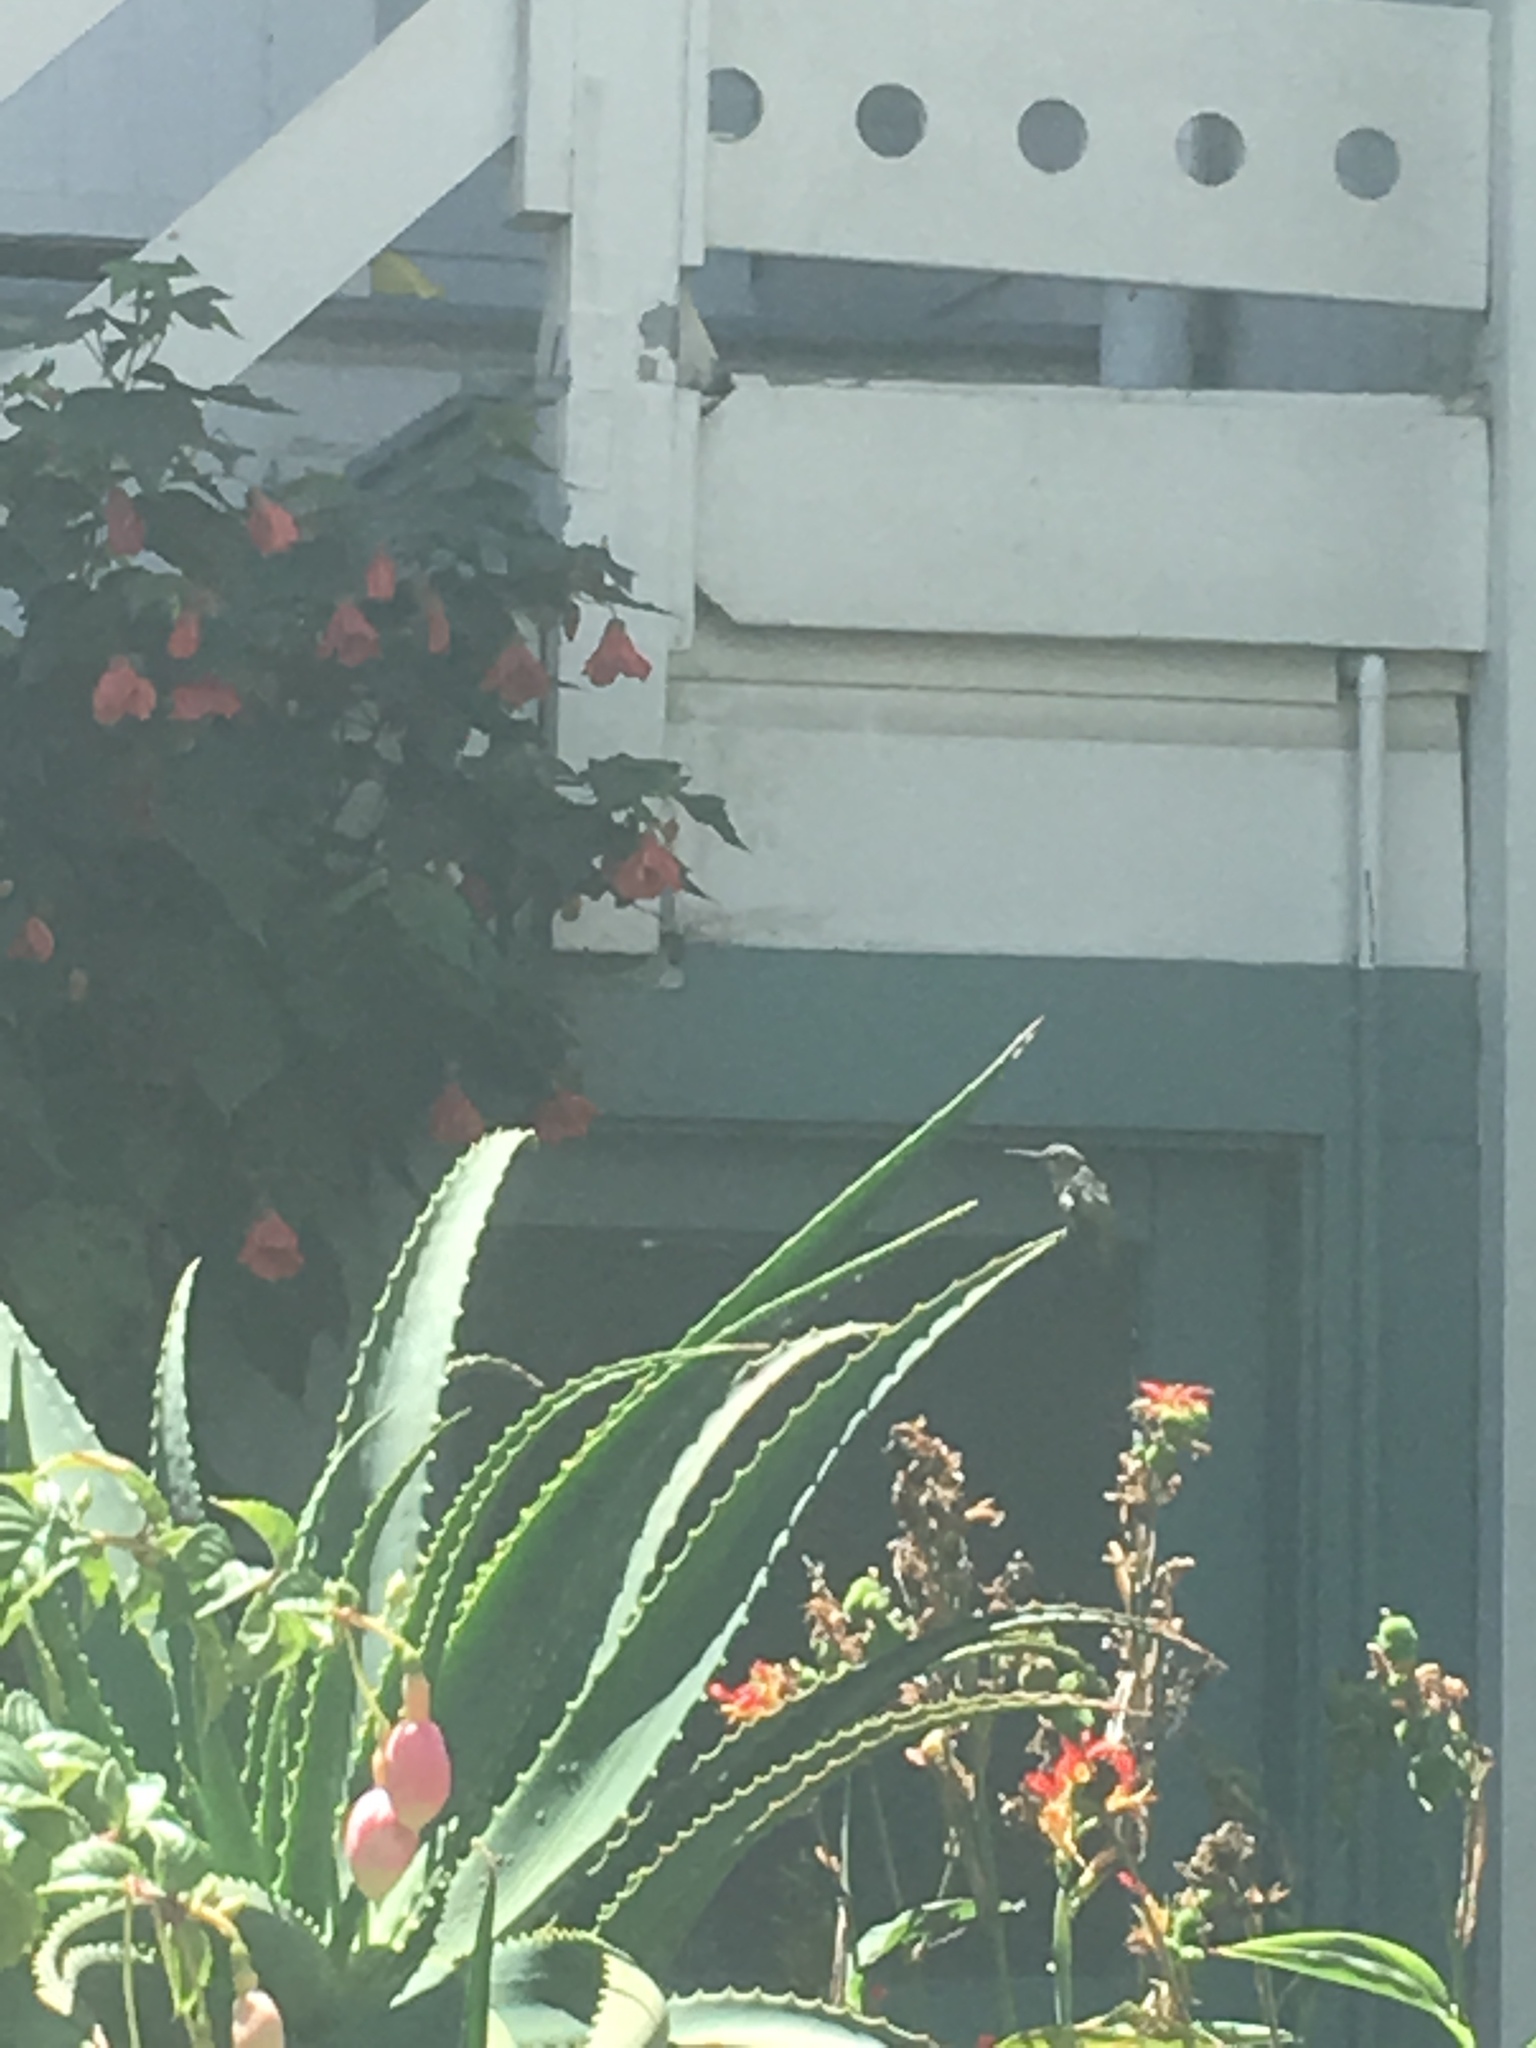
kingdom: Animalia
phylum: Chordata
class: Aves
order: Apodiformes
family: Trochilidae
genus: Calypte
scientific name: Calypte anna
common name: Anna's hummingbird
